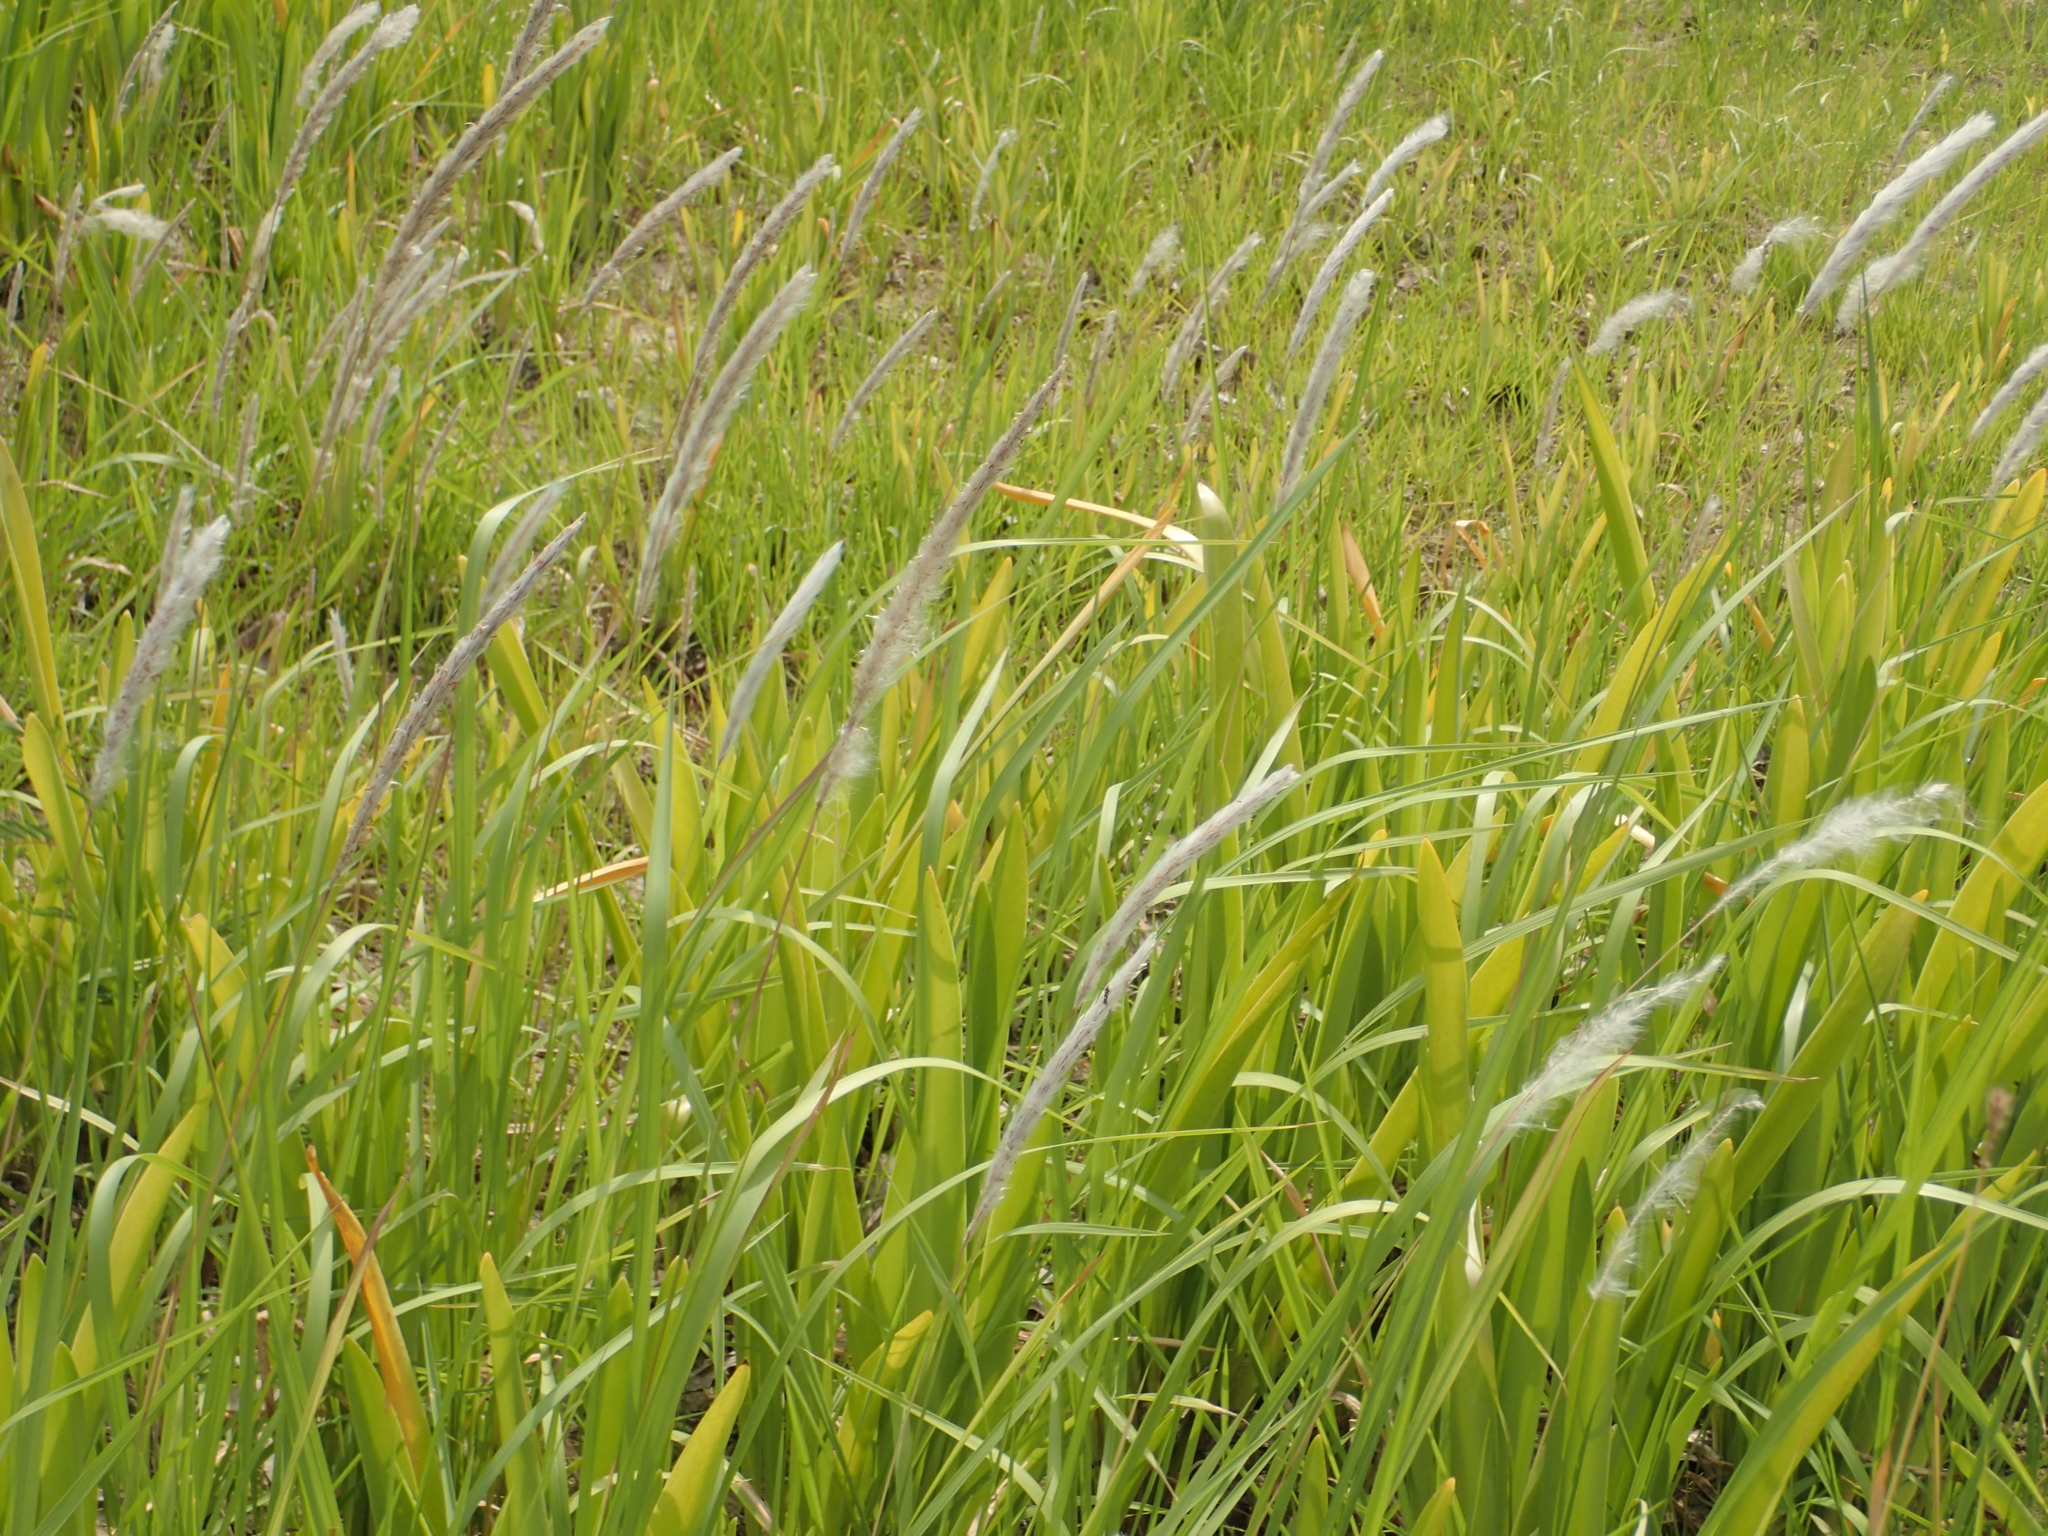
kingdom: Plantae
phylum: Tracheophyta
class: Liliopsida
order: Poales
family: Poaceae
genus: Imperata
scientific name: Imperata cylindrica
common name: Cogongrass
